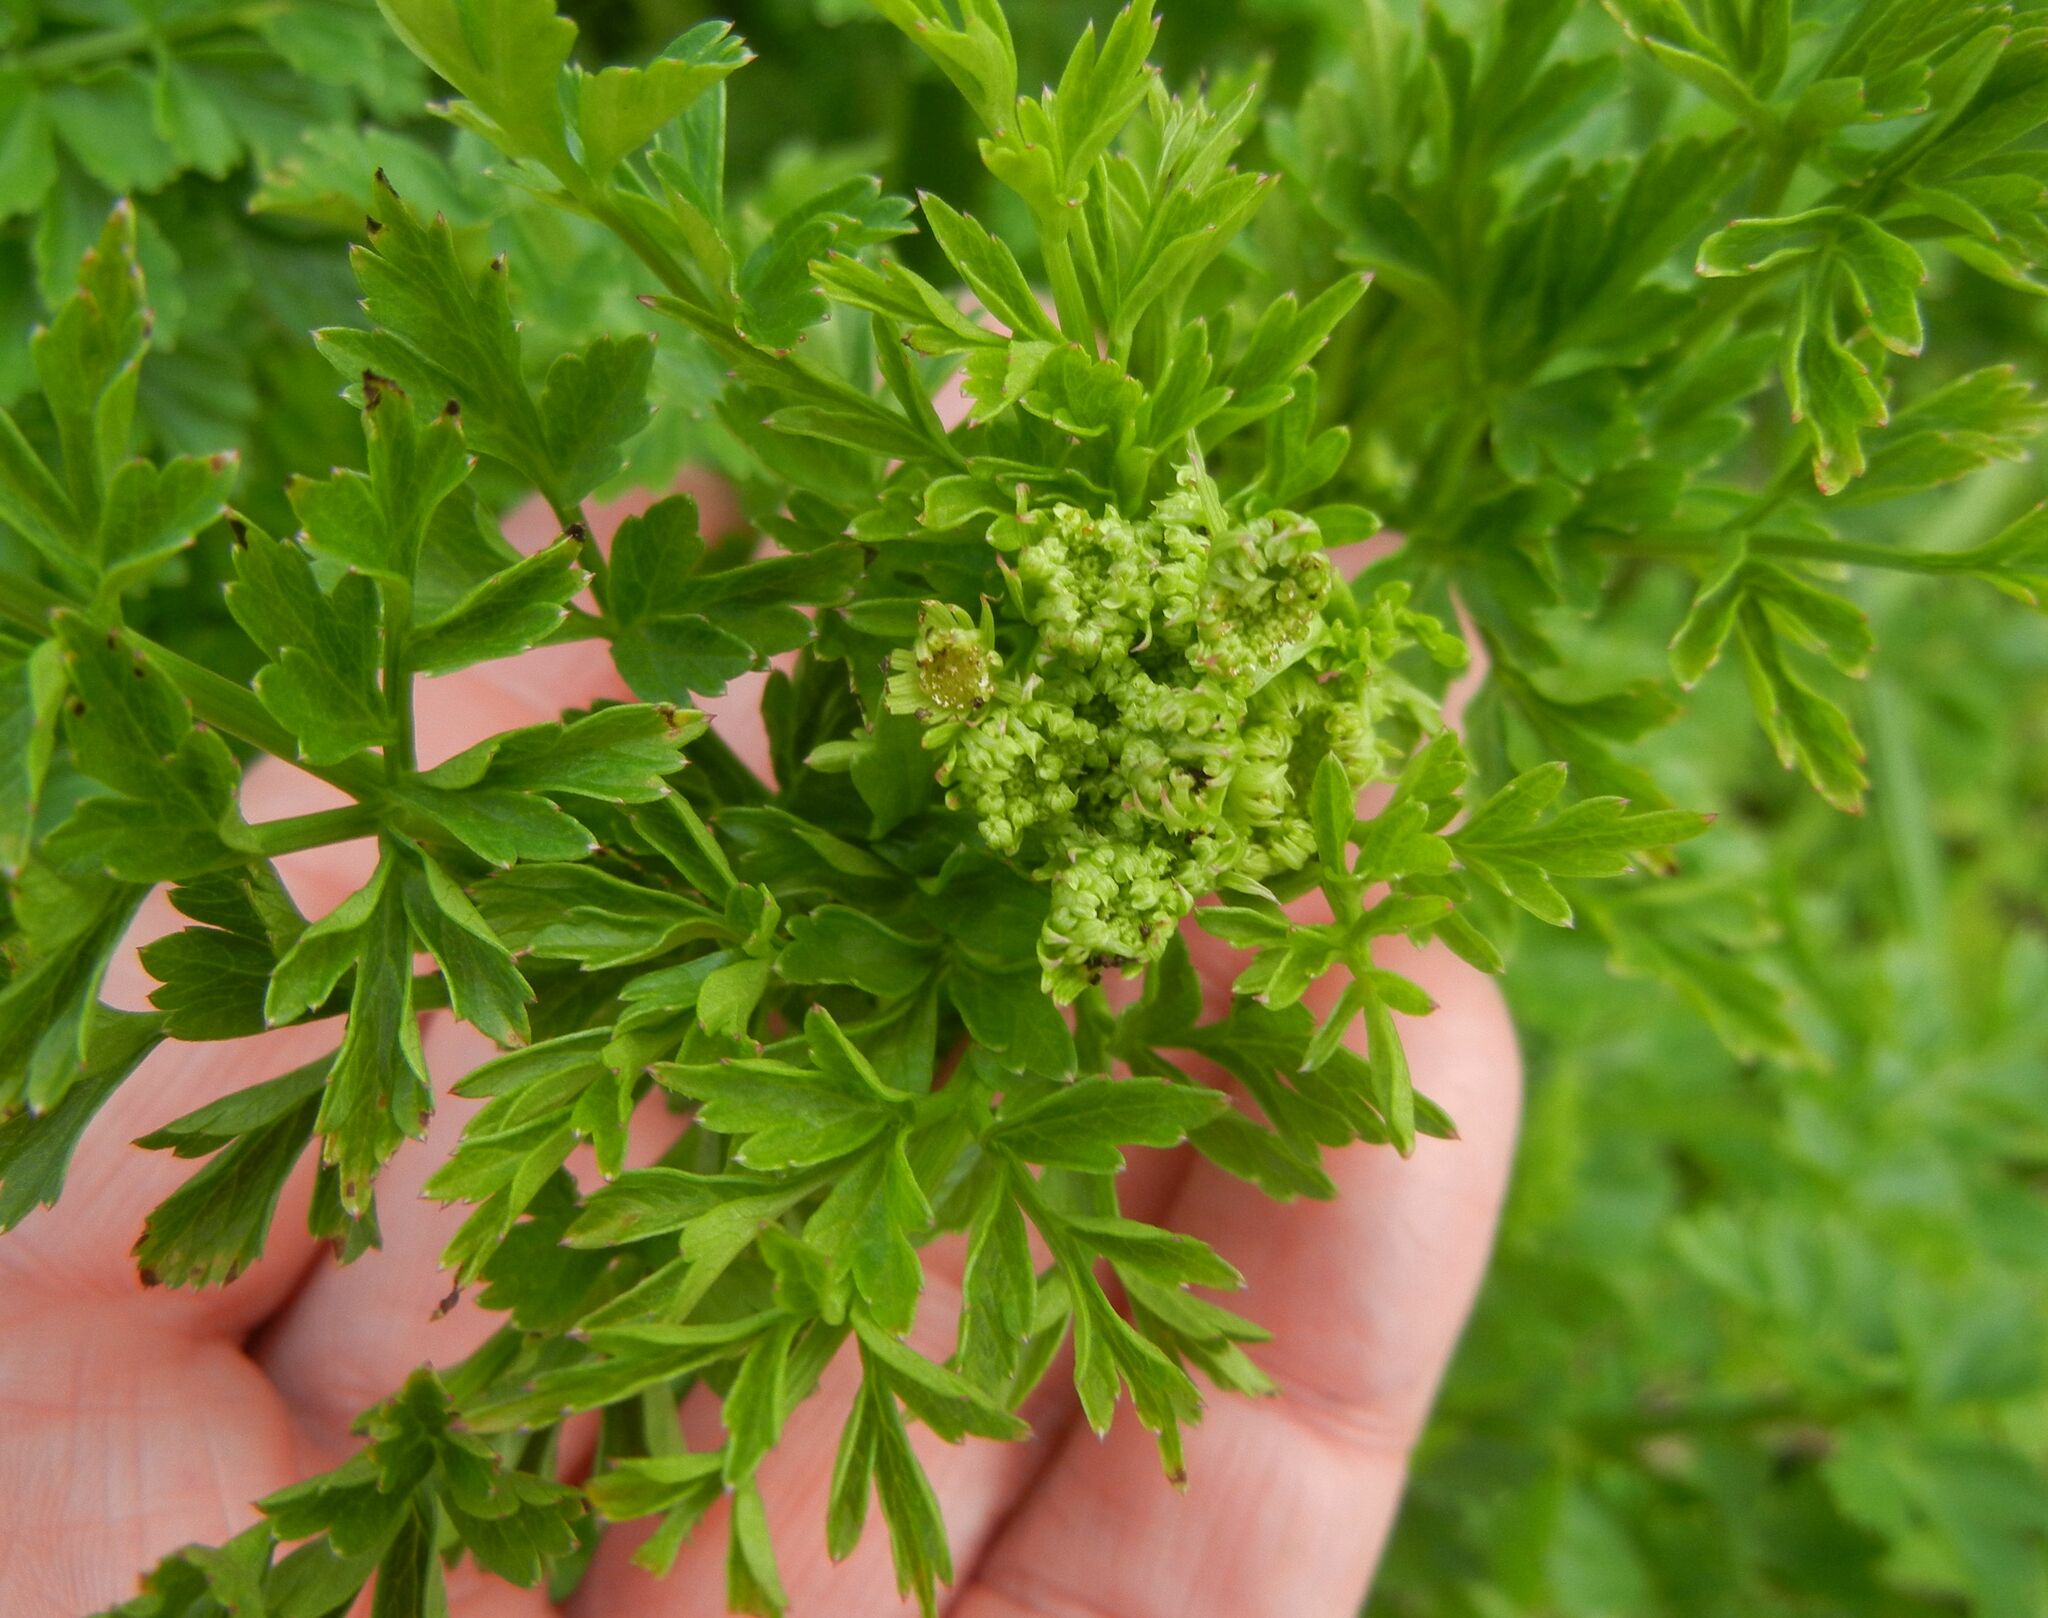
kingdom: Plantae
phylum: Tracheophyta
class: Magnoliopsida
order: Apiales
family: Apiaceae
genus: Oenanthe
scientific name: Oenanthe crocata
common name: Hemlock water-dropwort
